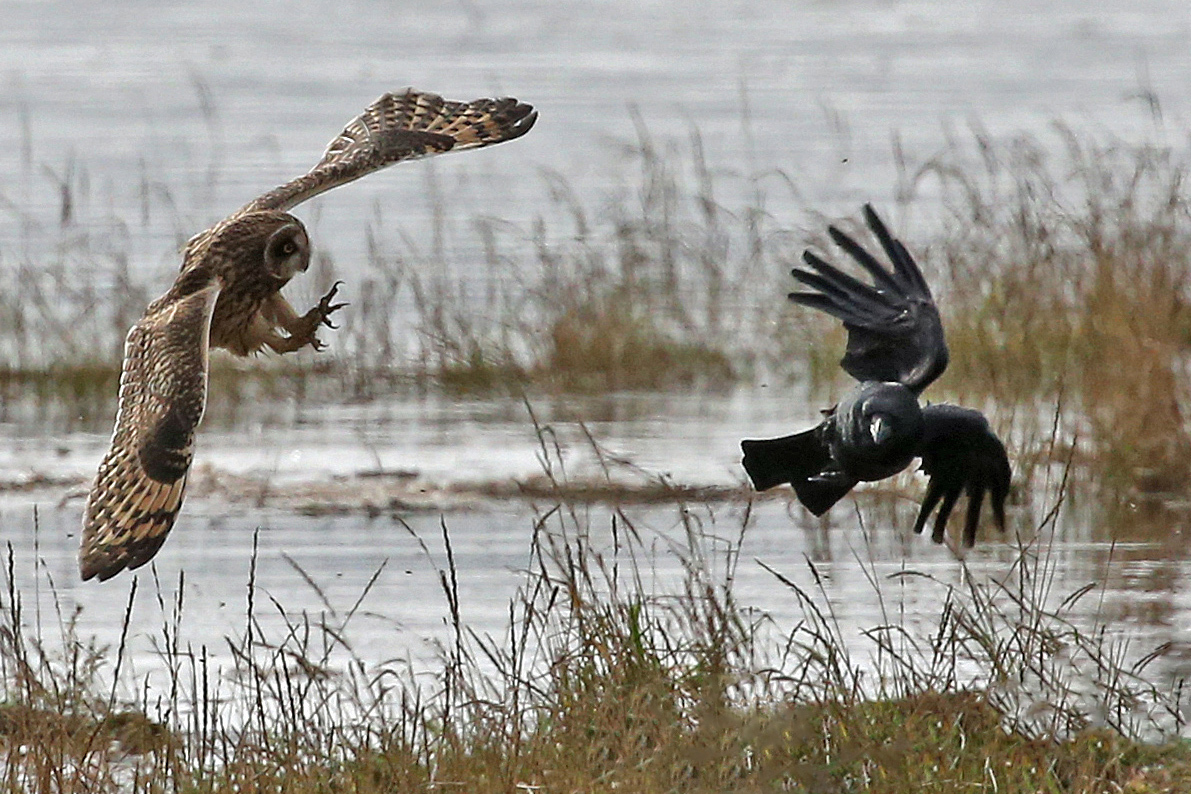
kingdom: Animalia
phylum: Chordata
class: Aves
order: Passeriformes
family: Corvidae
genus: Corvus
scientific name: Corvus corone
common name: Carrion crow
